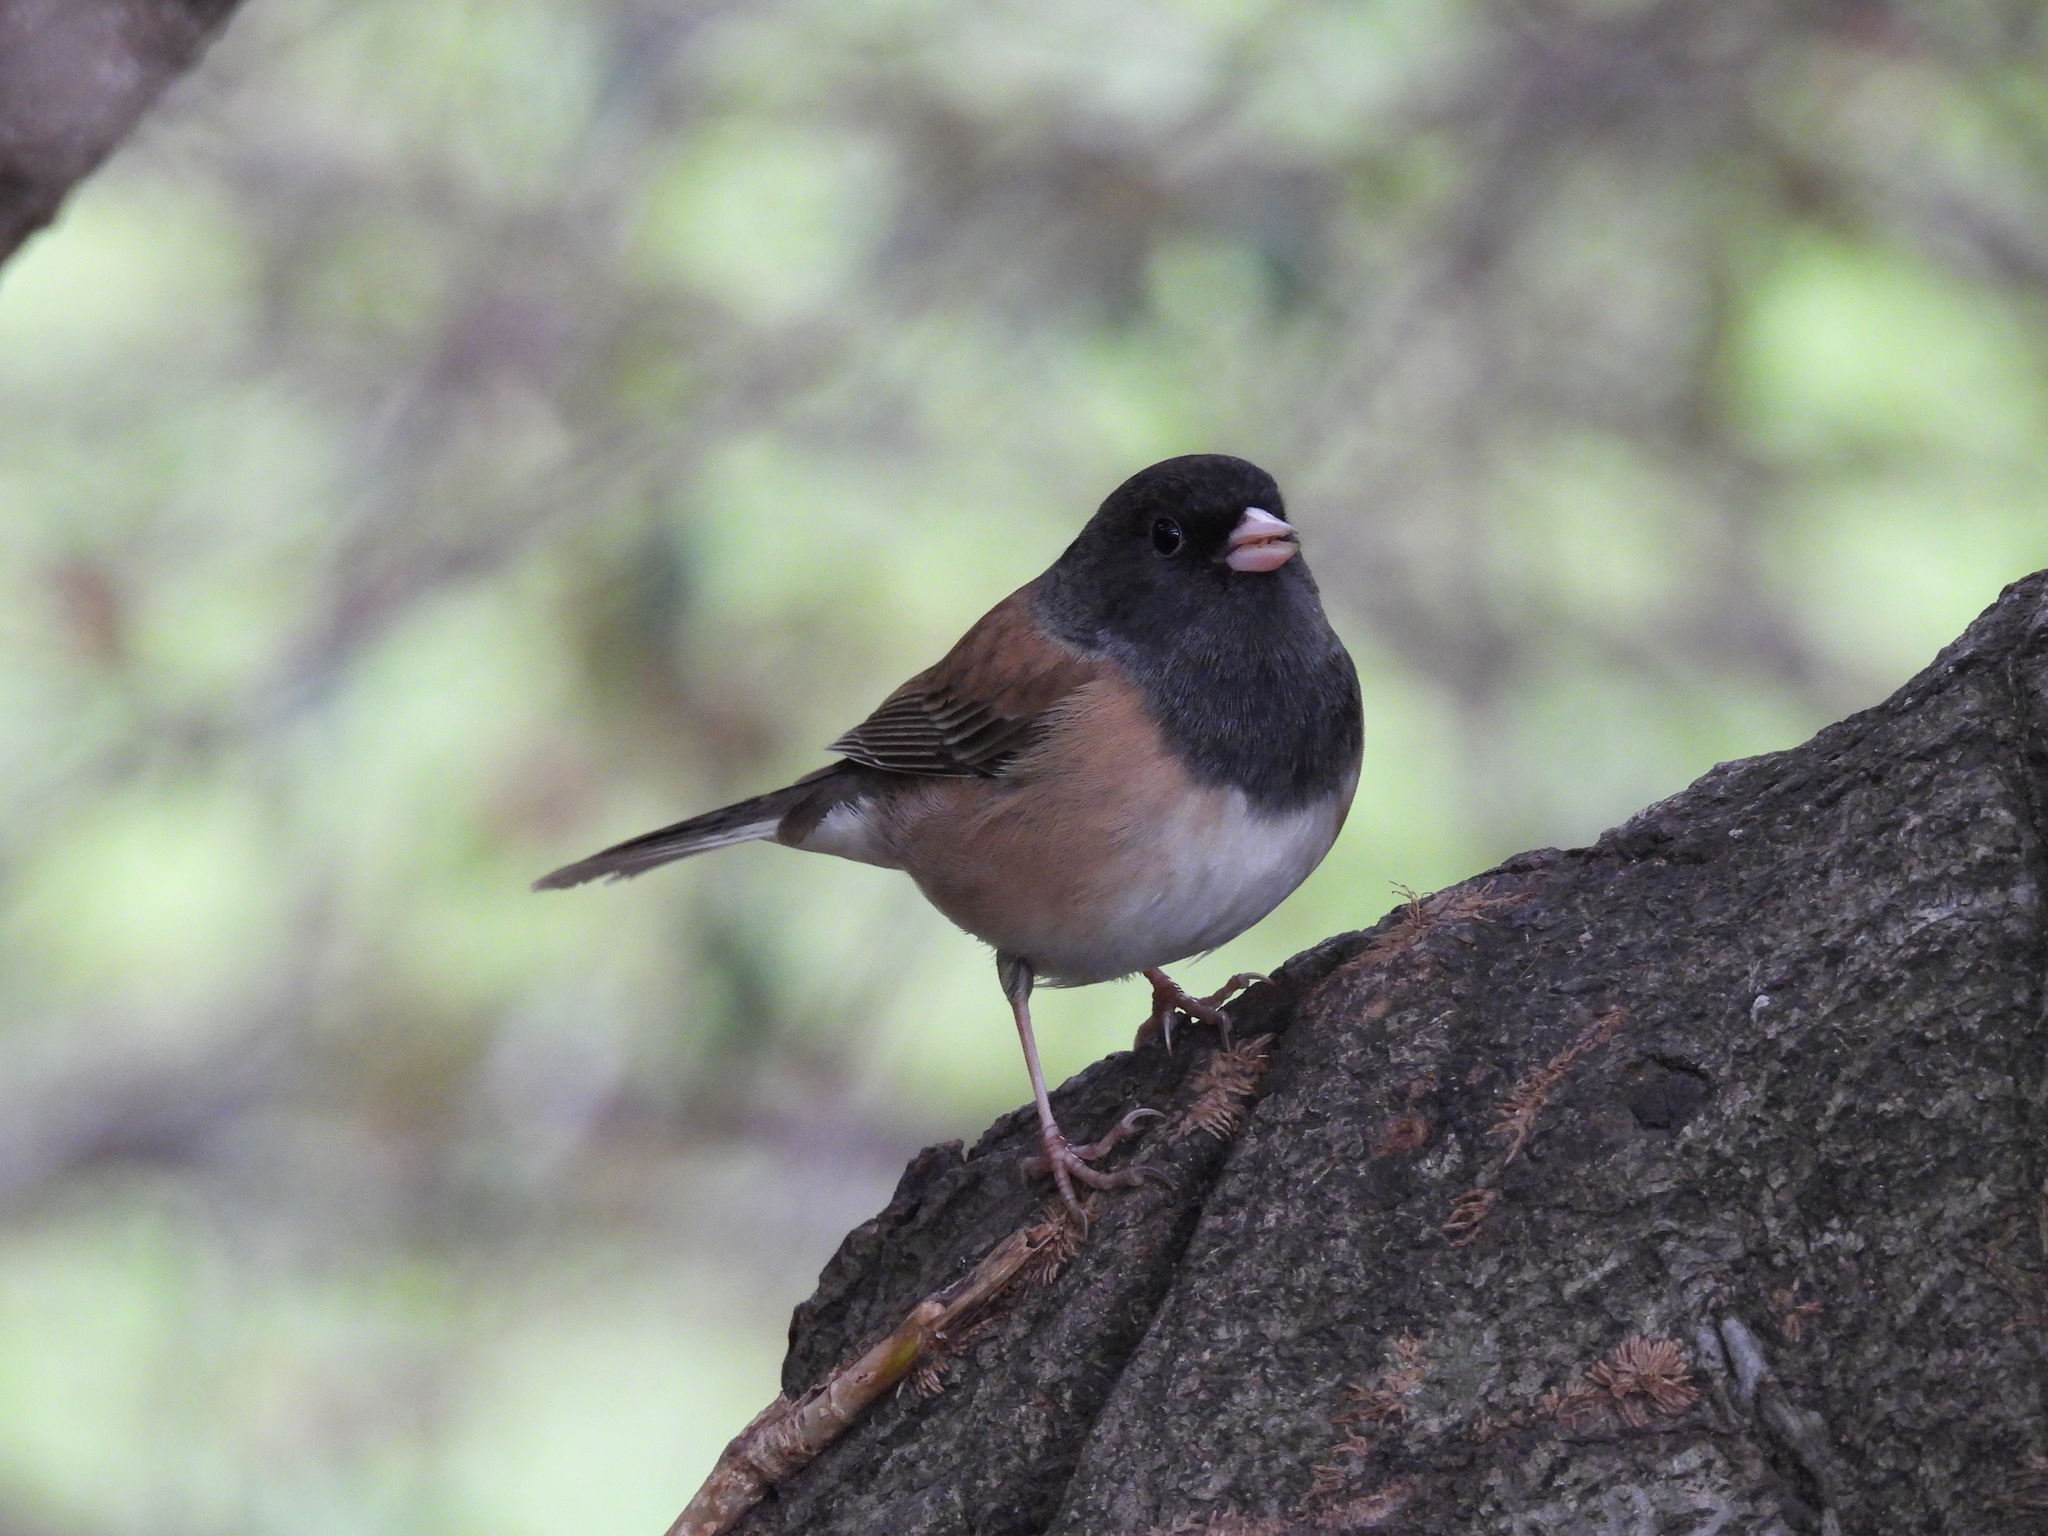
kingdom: Animalia
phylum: Chordata
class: Aves
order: Passeriformes
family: Passerellidae
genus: Junco
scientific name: Junco hyemalis
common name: Dark-eyed junco
